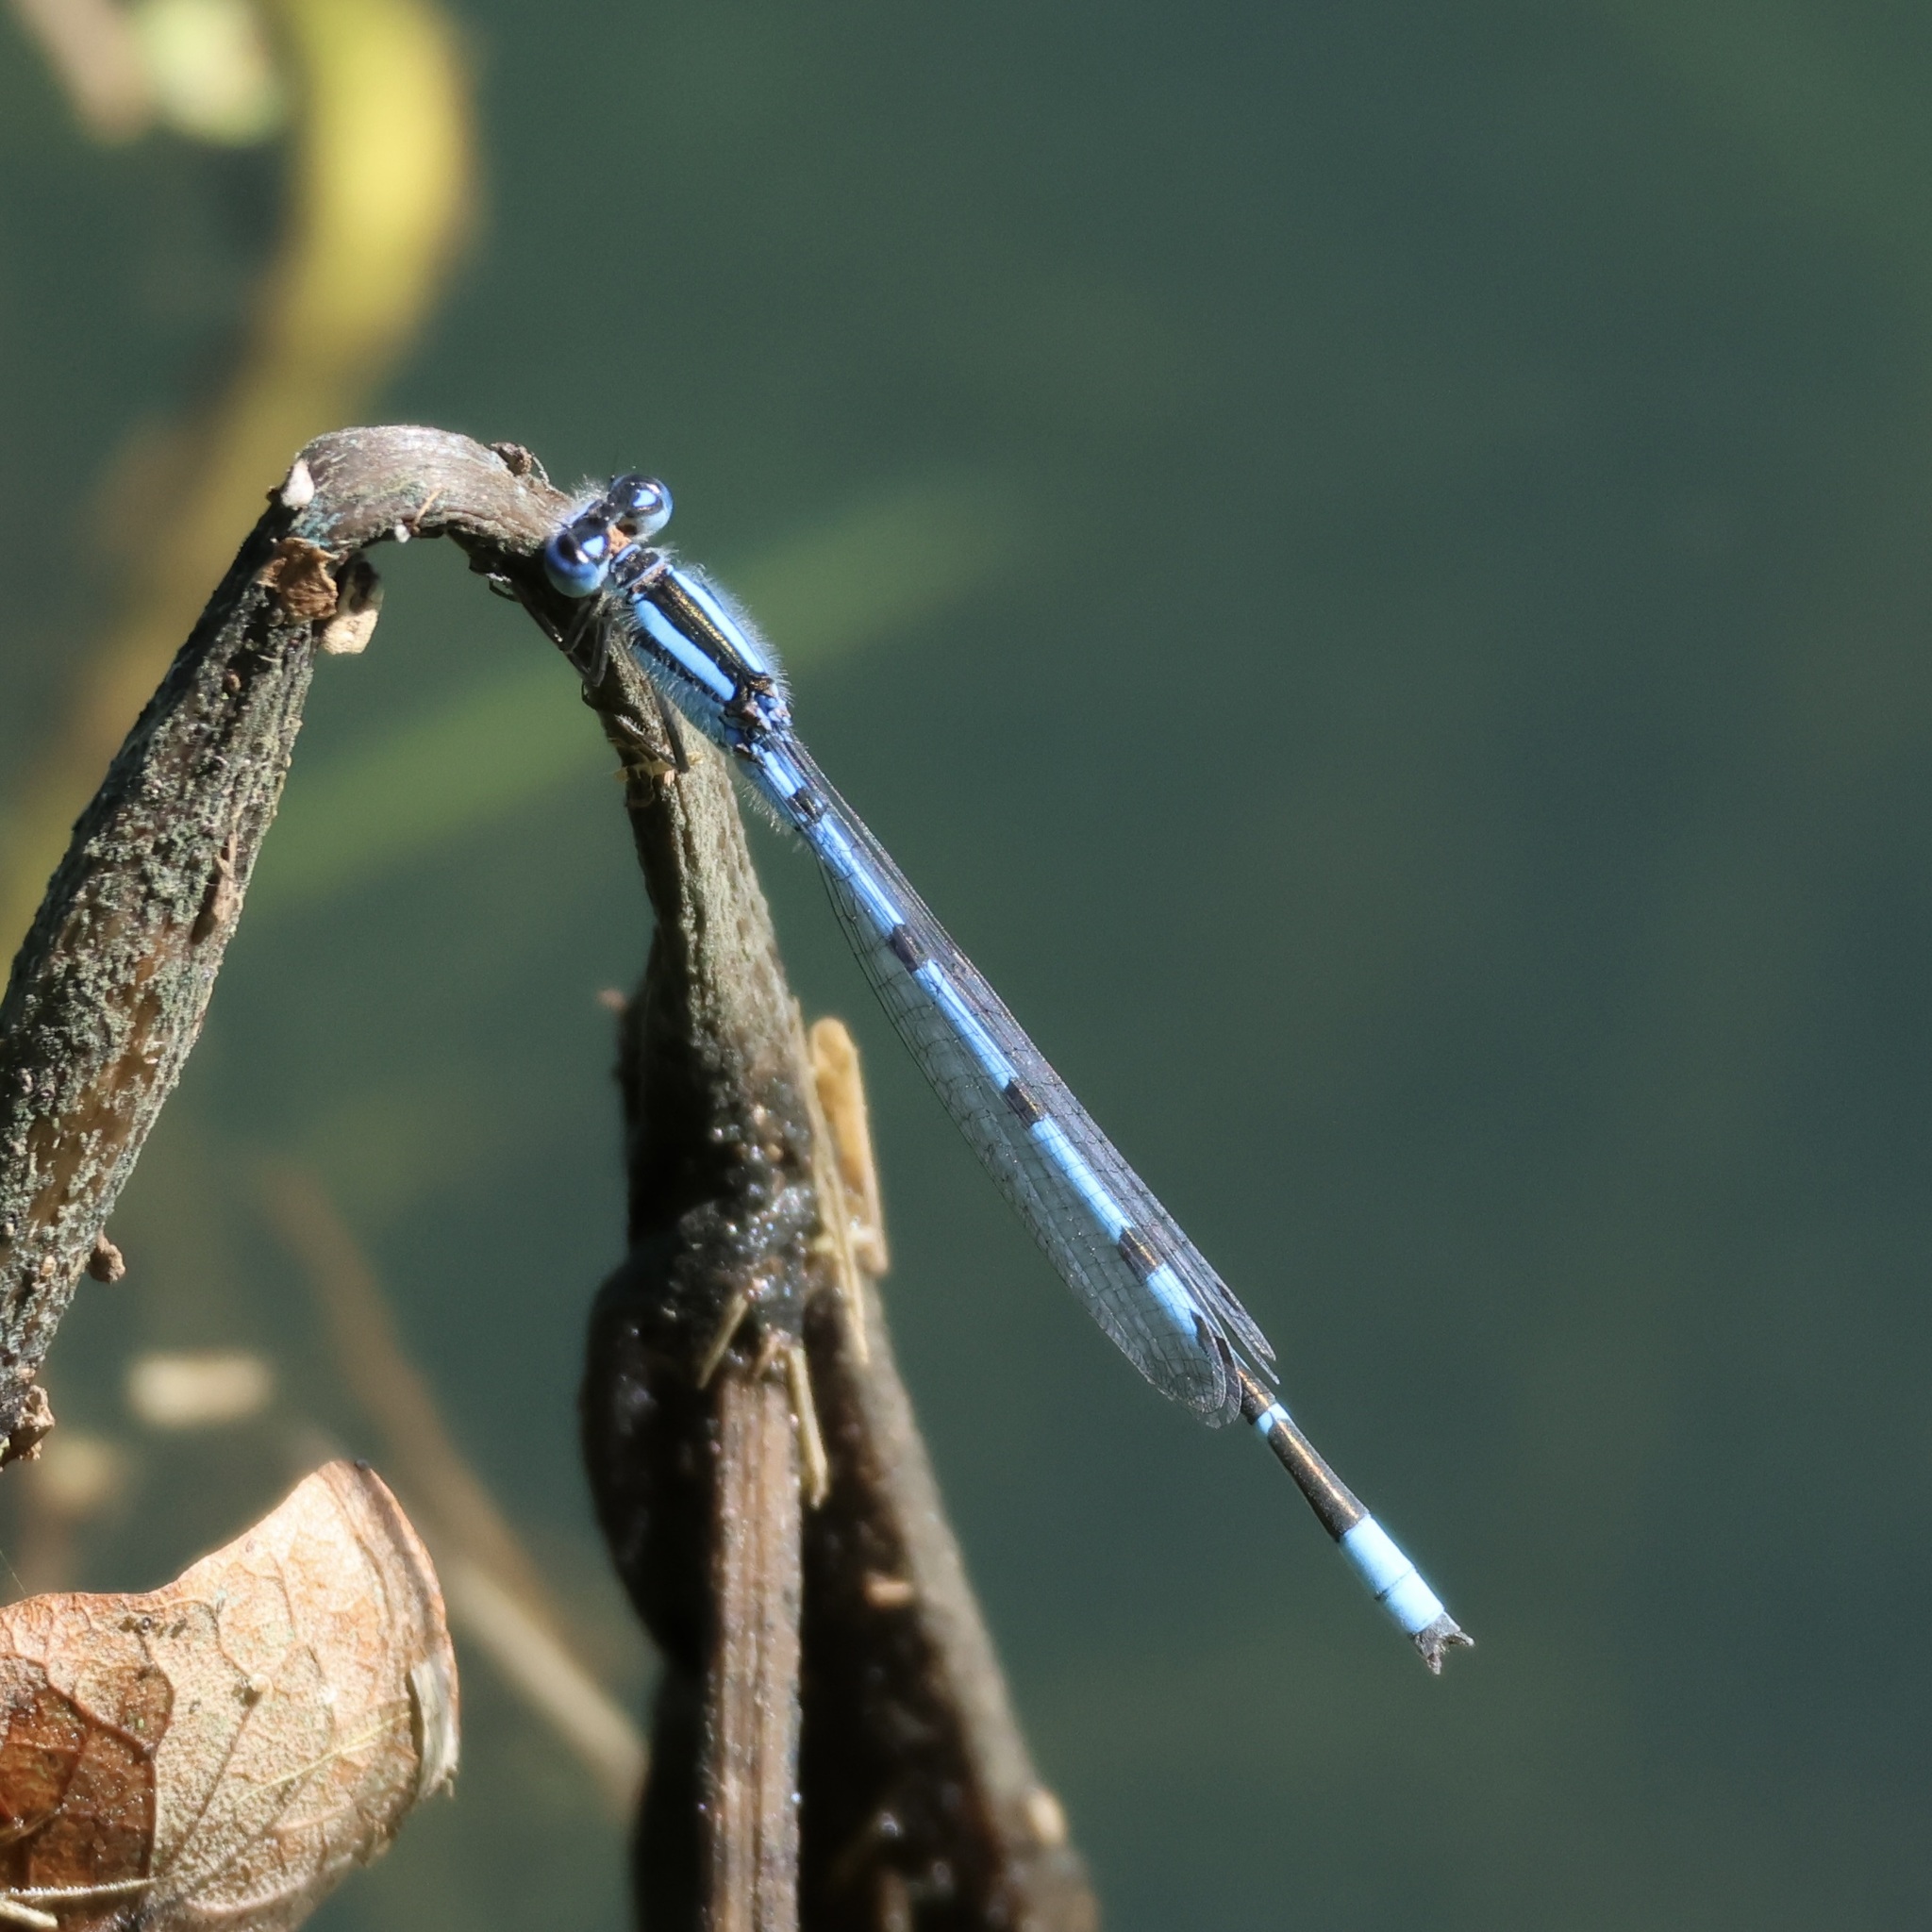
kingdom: Animalia
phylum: Arthropoda
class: Insecta
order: Odonata
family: Coenagrionidae
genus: Enallagma
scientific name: Enallagma civile
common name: Damselfly
